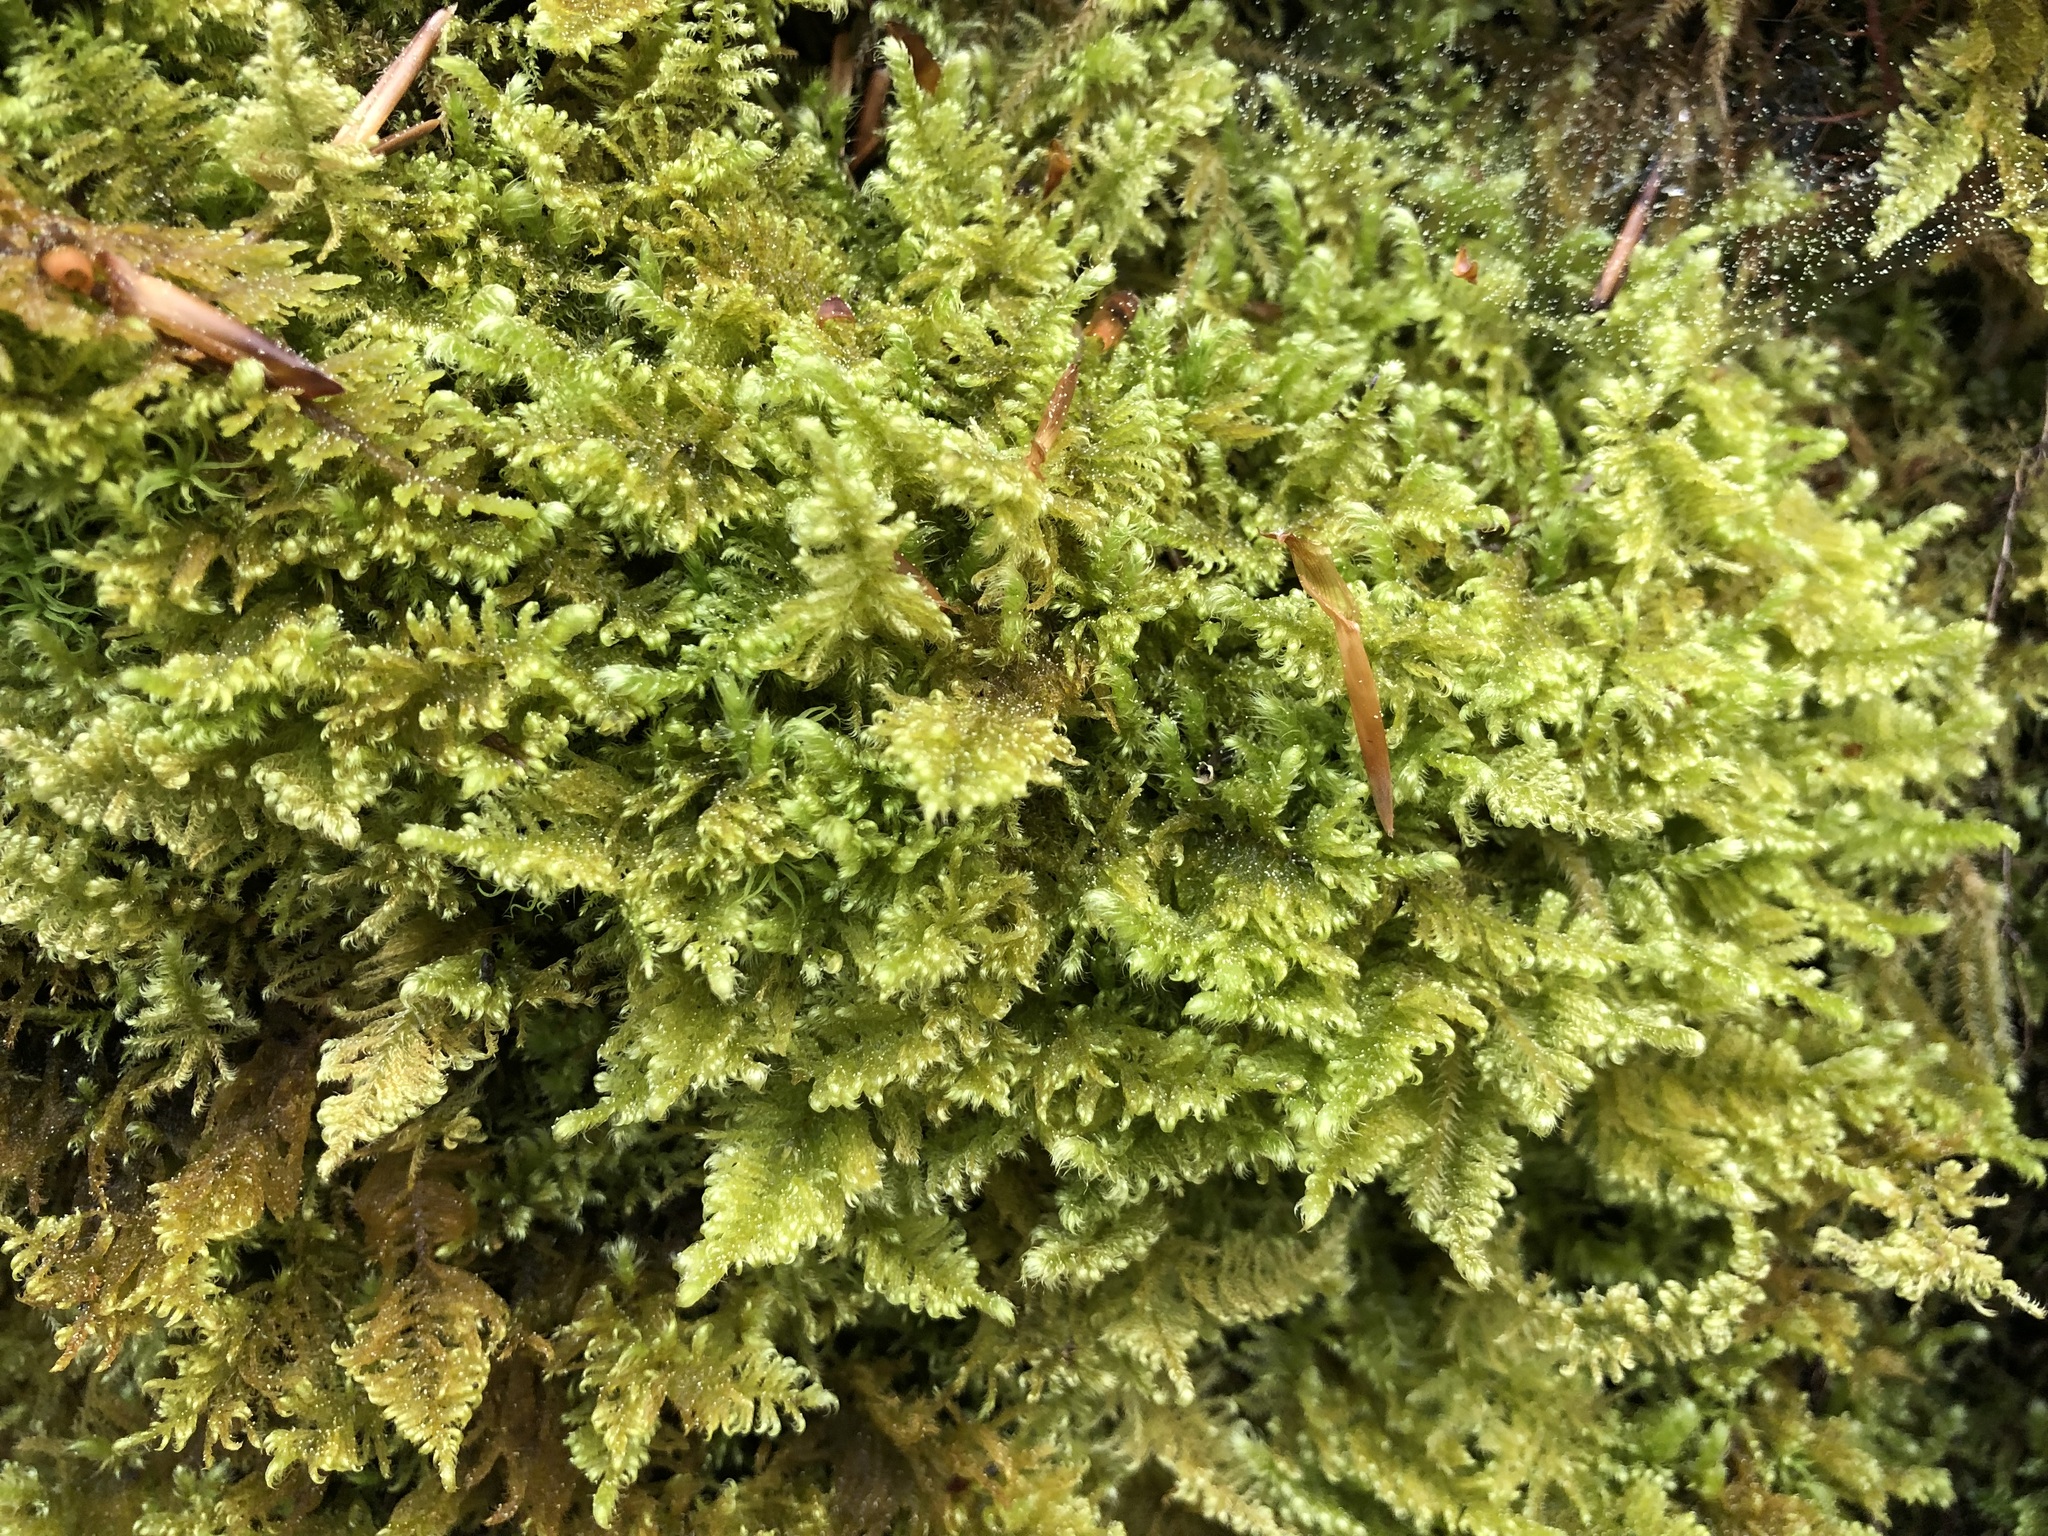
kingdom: Plantae
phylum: Bryophyta
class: Bryopsida
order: Hypnales
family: Myuriaceae
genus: Ctenidium
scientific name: Ctenidium molluscum
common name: Chalk comb-moss
